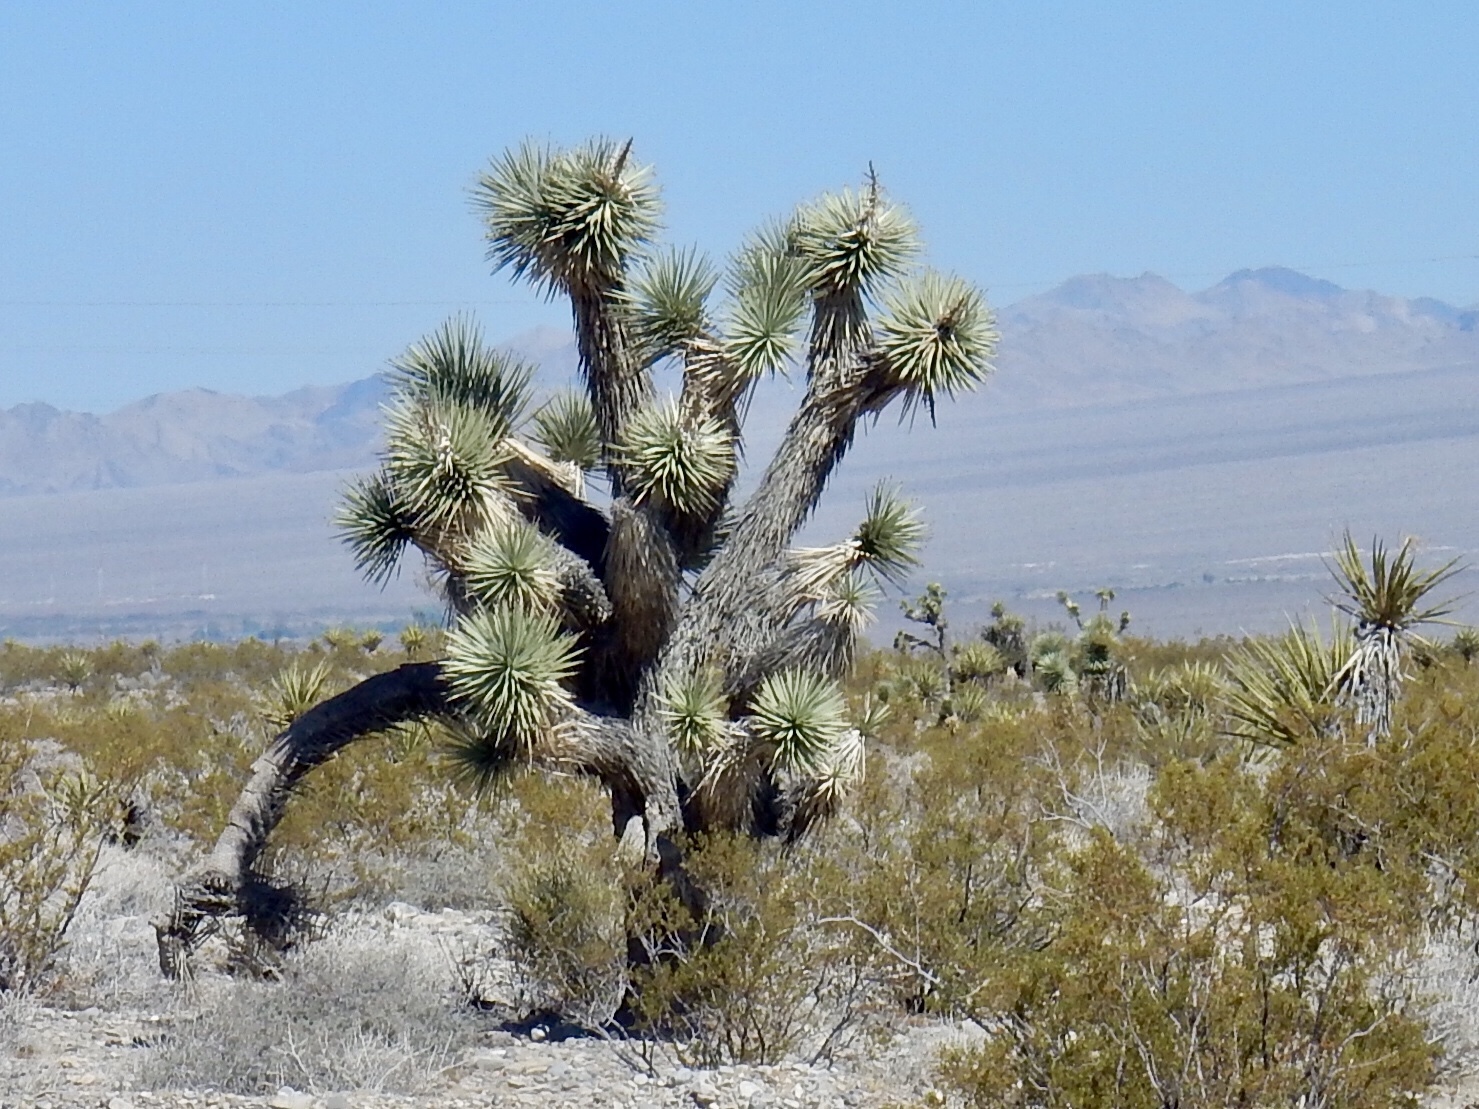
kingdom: Plantae
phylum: Tracheophyta
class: Liliopsida
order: Asparagales
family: Asparagaceae
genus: Yucca
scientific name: Yucca brevifolia
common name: Joshua tree
